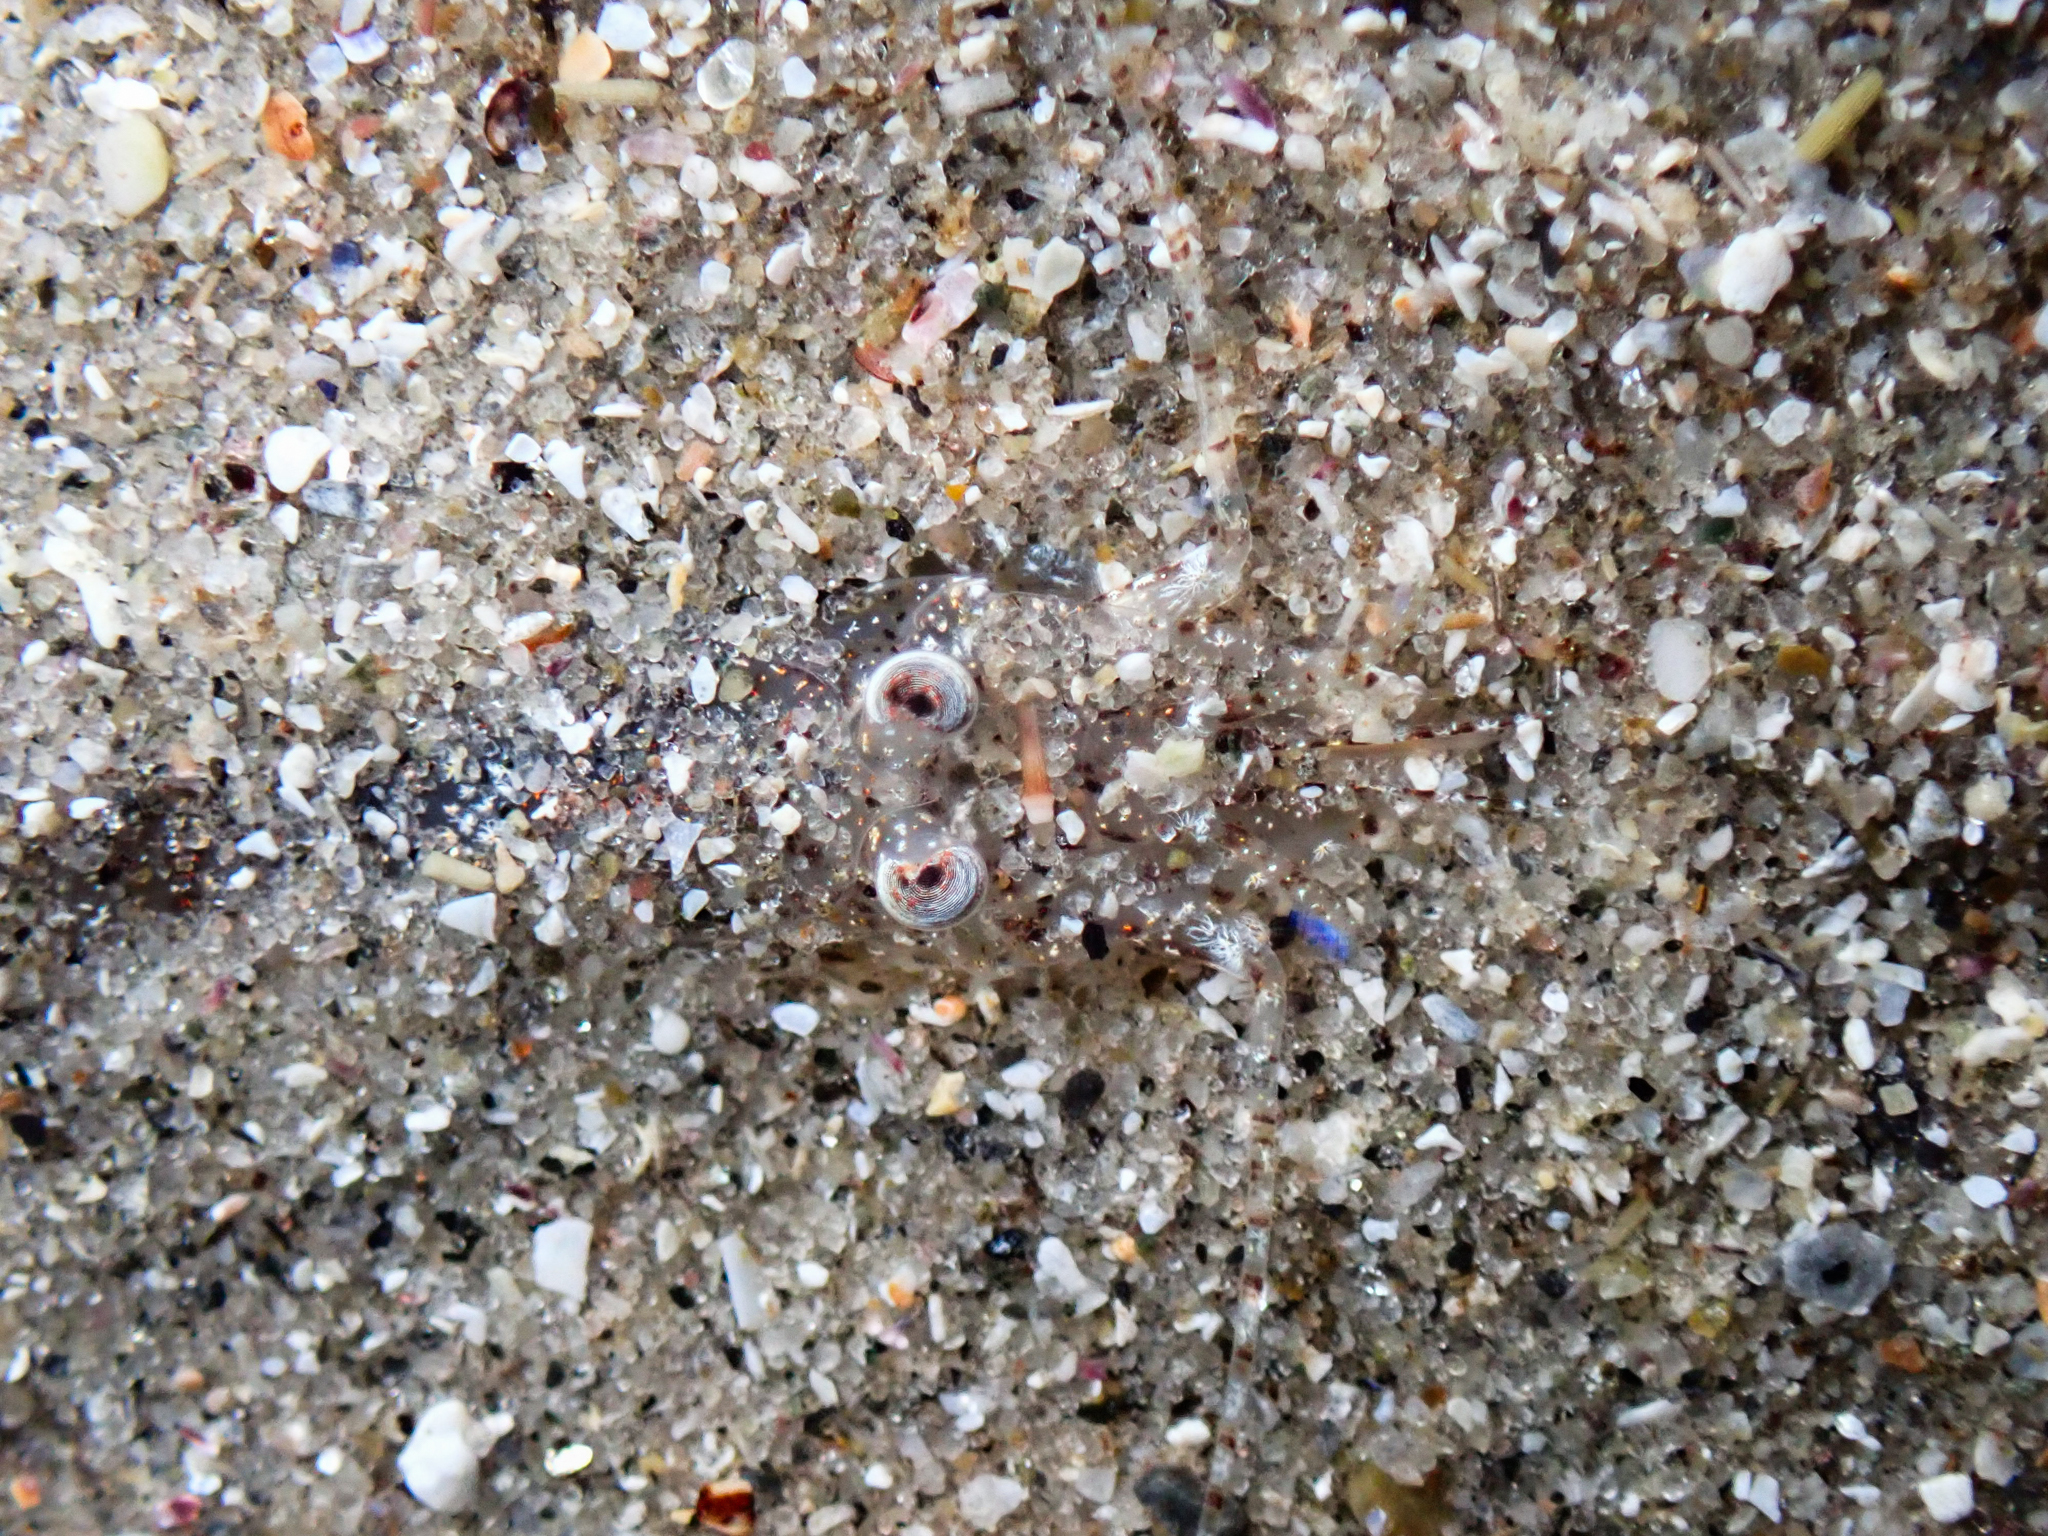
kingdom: Animalia
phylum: Arthropoda
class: Malacostraca
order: Decapoda
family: Crangonidae
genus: Crangon
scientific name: Crangon crangon
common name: Brown shrimp
